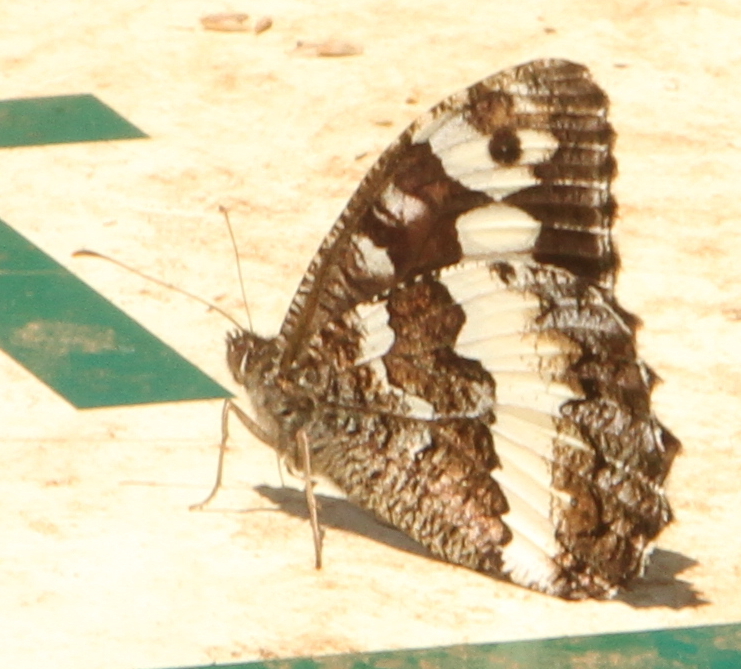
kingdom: Animalia
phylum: Arthropoda
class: Insecta
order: Lepidoptera
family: Lycaenidae
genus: Loweia
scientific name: Loweia tityrus
